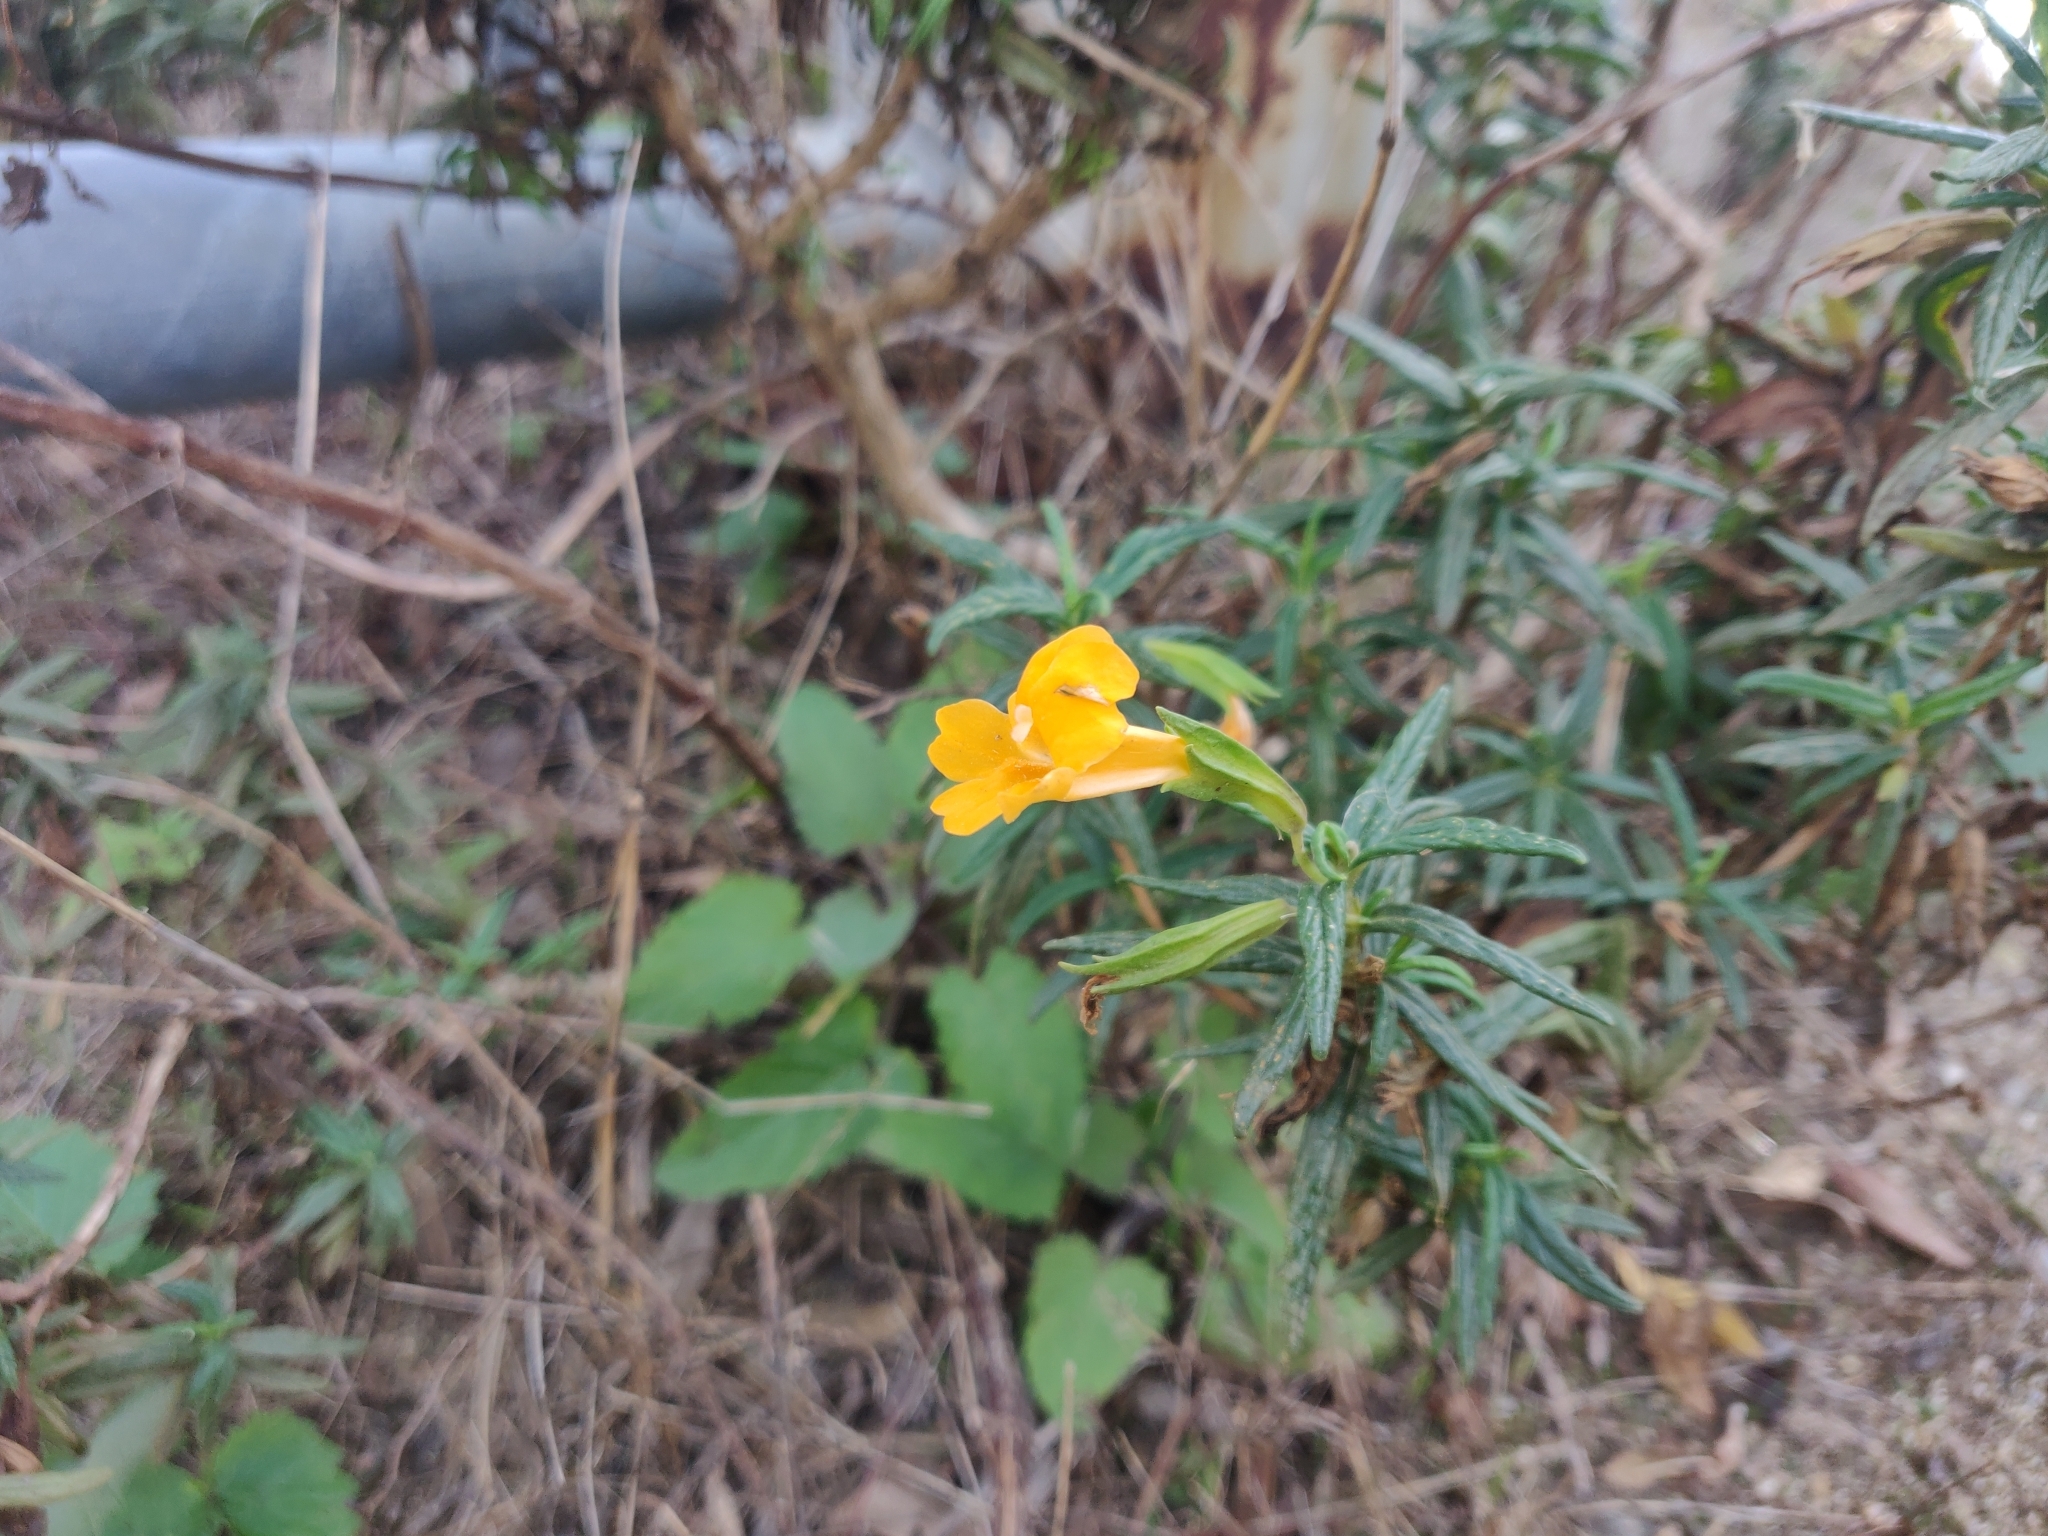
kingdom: Plantae
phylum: Tracheophyta
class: Magnoliopsida
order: Lamiales
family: Phrymaceae
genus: Diplacus
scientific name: Diplacus aurantiacus
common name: Bush monkey-flower
